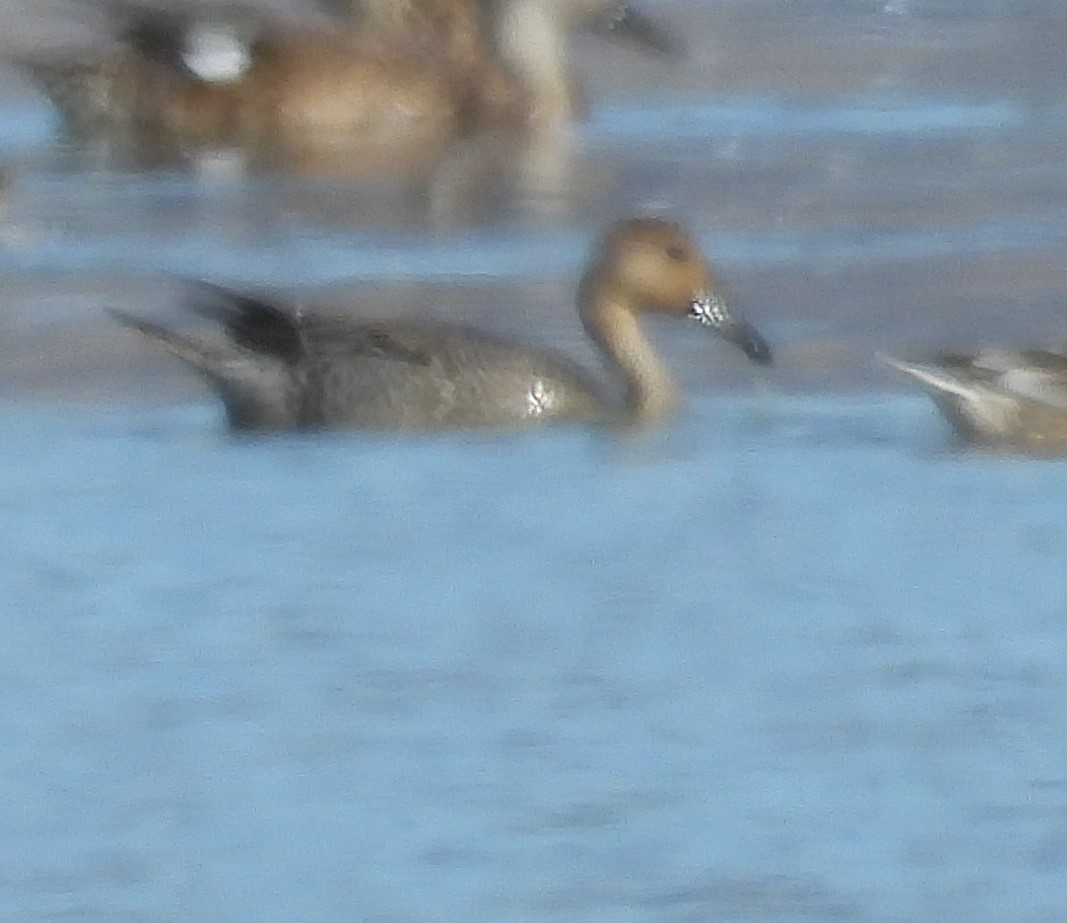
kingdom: Animalia
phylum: Chordata
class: Aves
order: Anseriformes
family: Anatidae
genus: Anas
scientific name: Anas acuta
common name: Northern pintail
